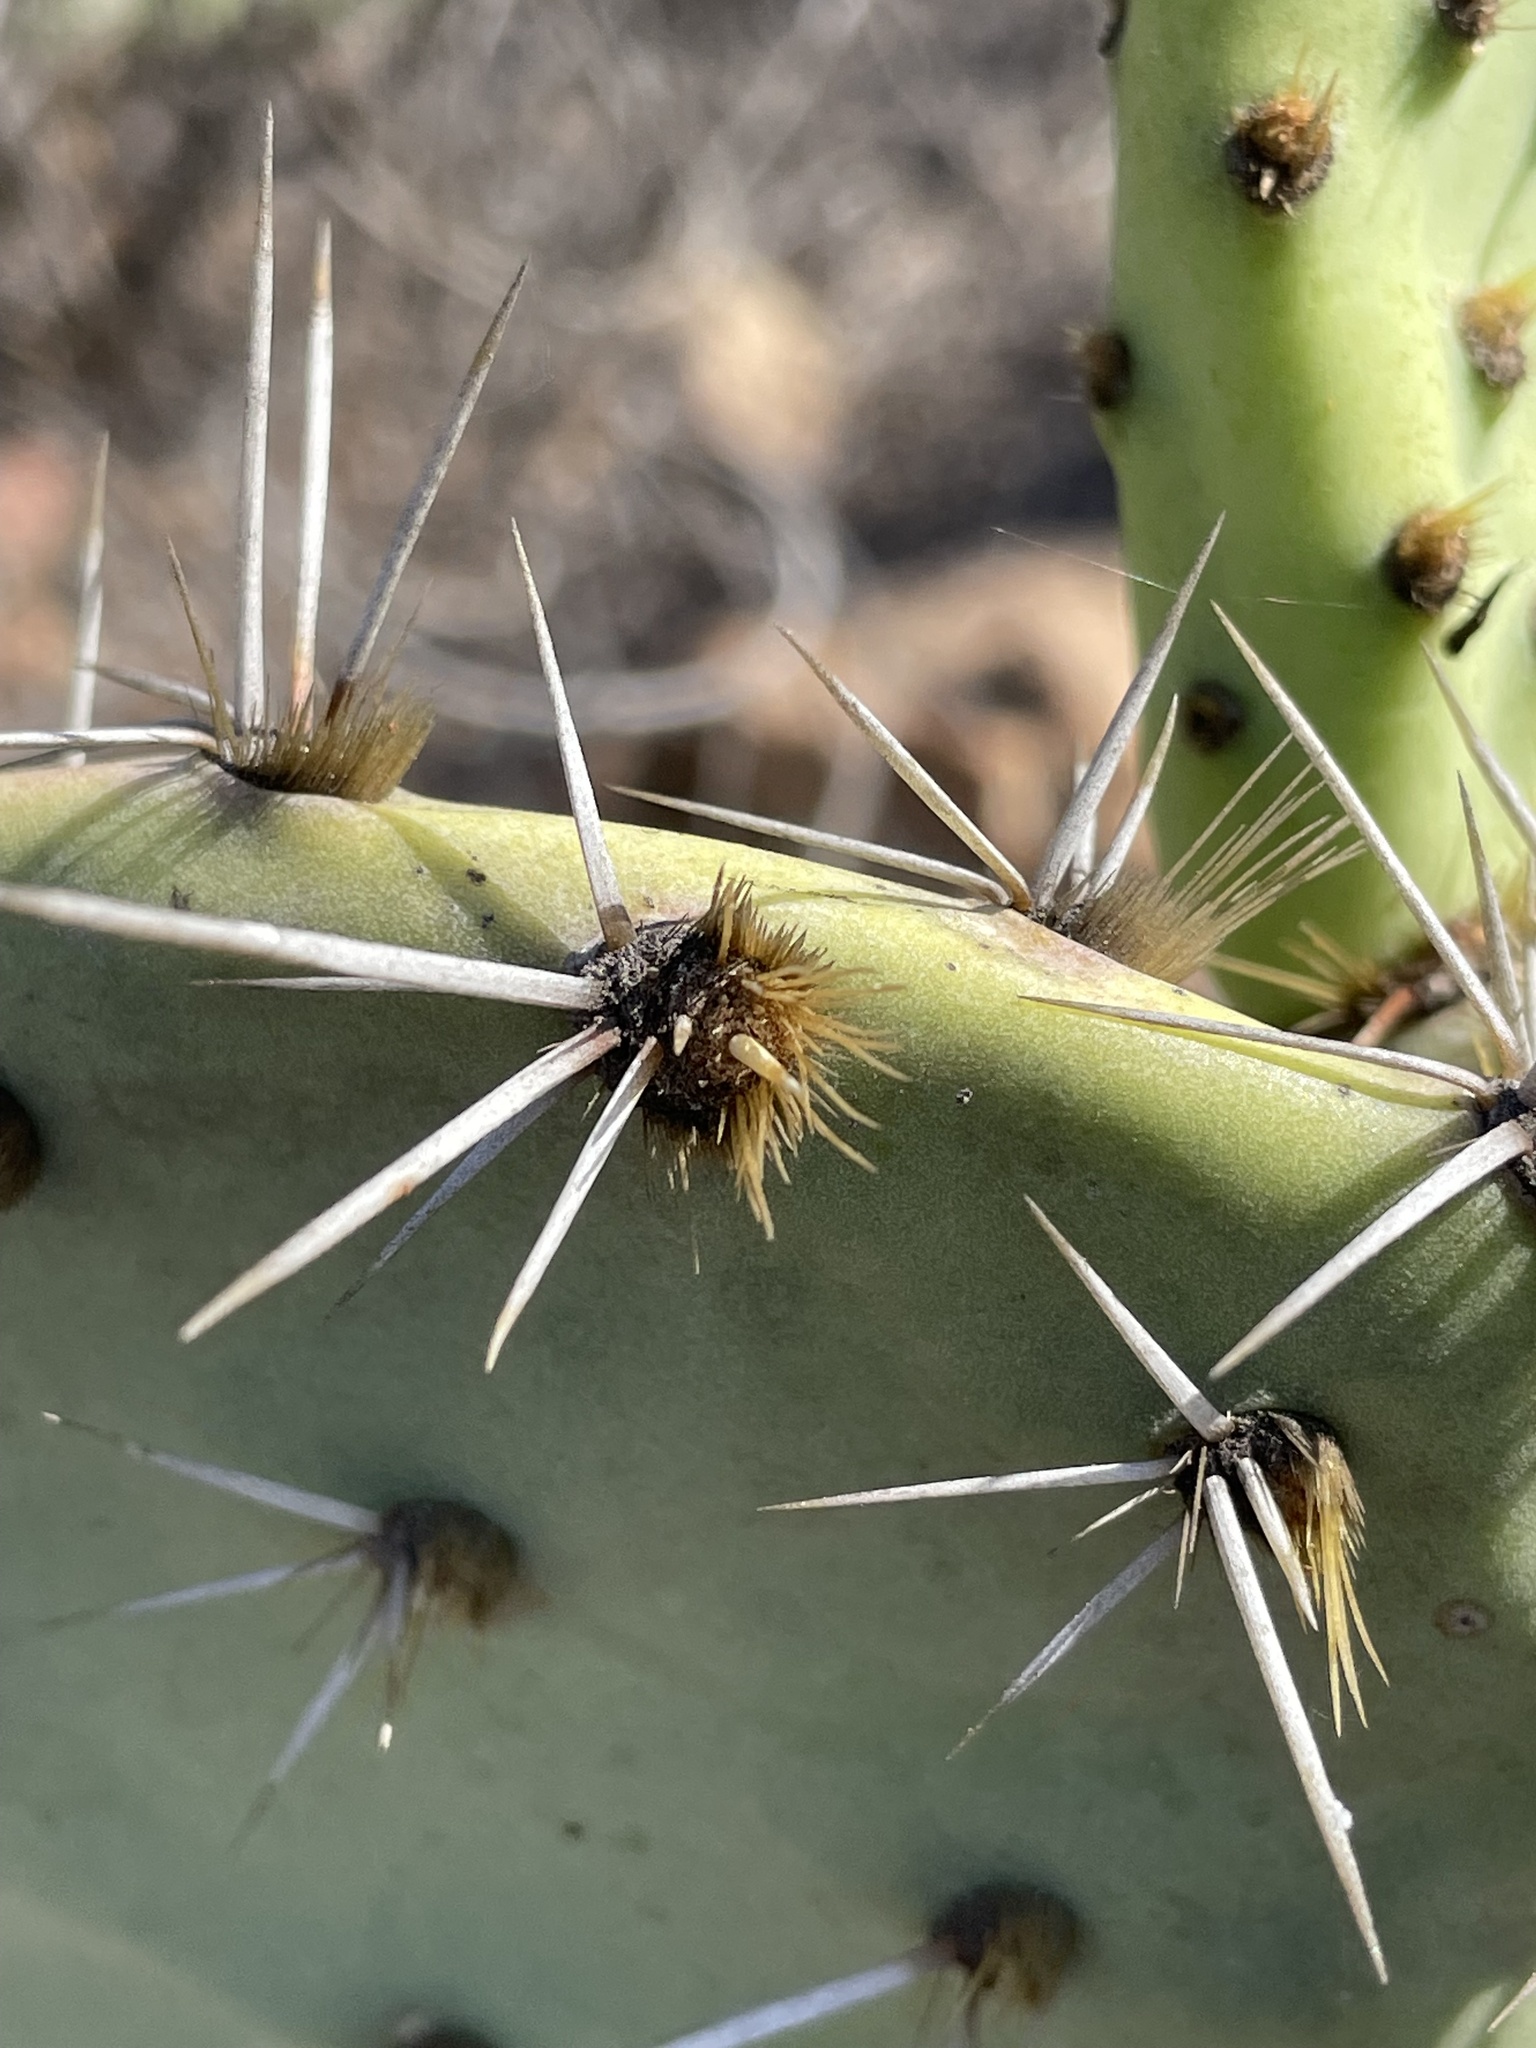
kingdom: Plantae
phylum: Tracheophyta
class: Magnoliopsida
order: Caryophyllales
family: Cactaceae
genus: Opuntia
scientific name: Opuntia littoralis
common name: Coastal prickly-pear
